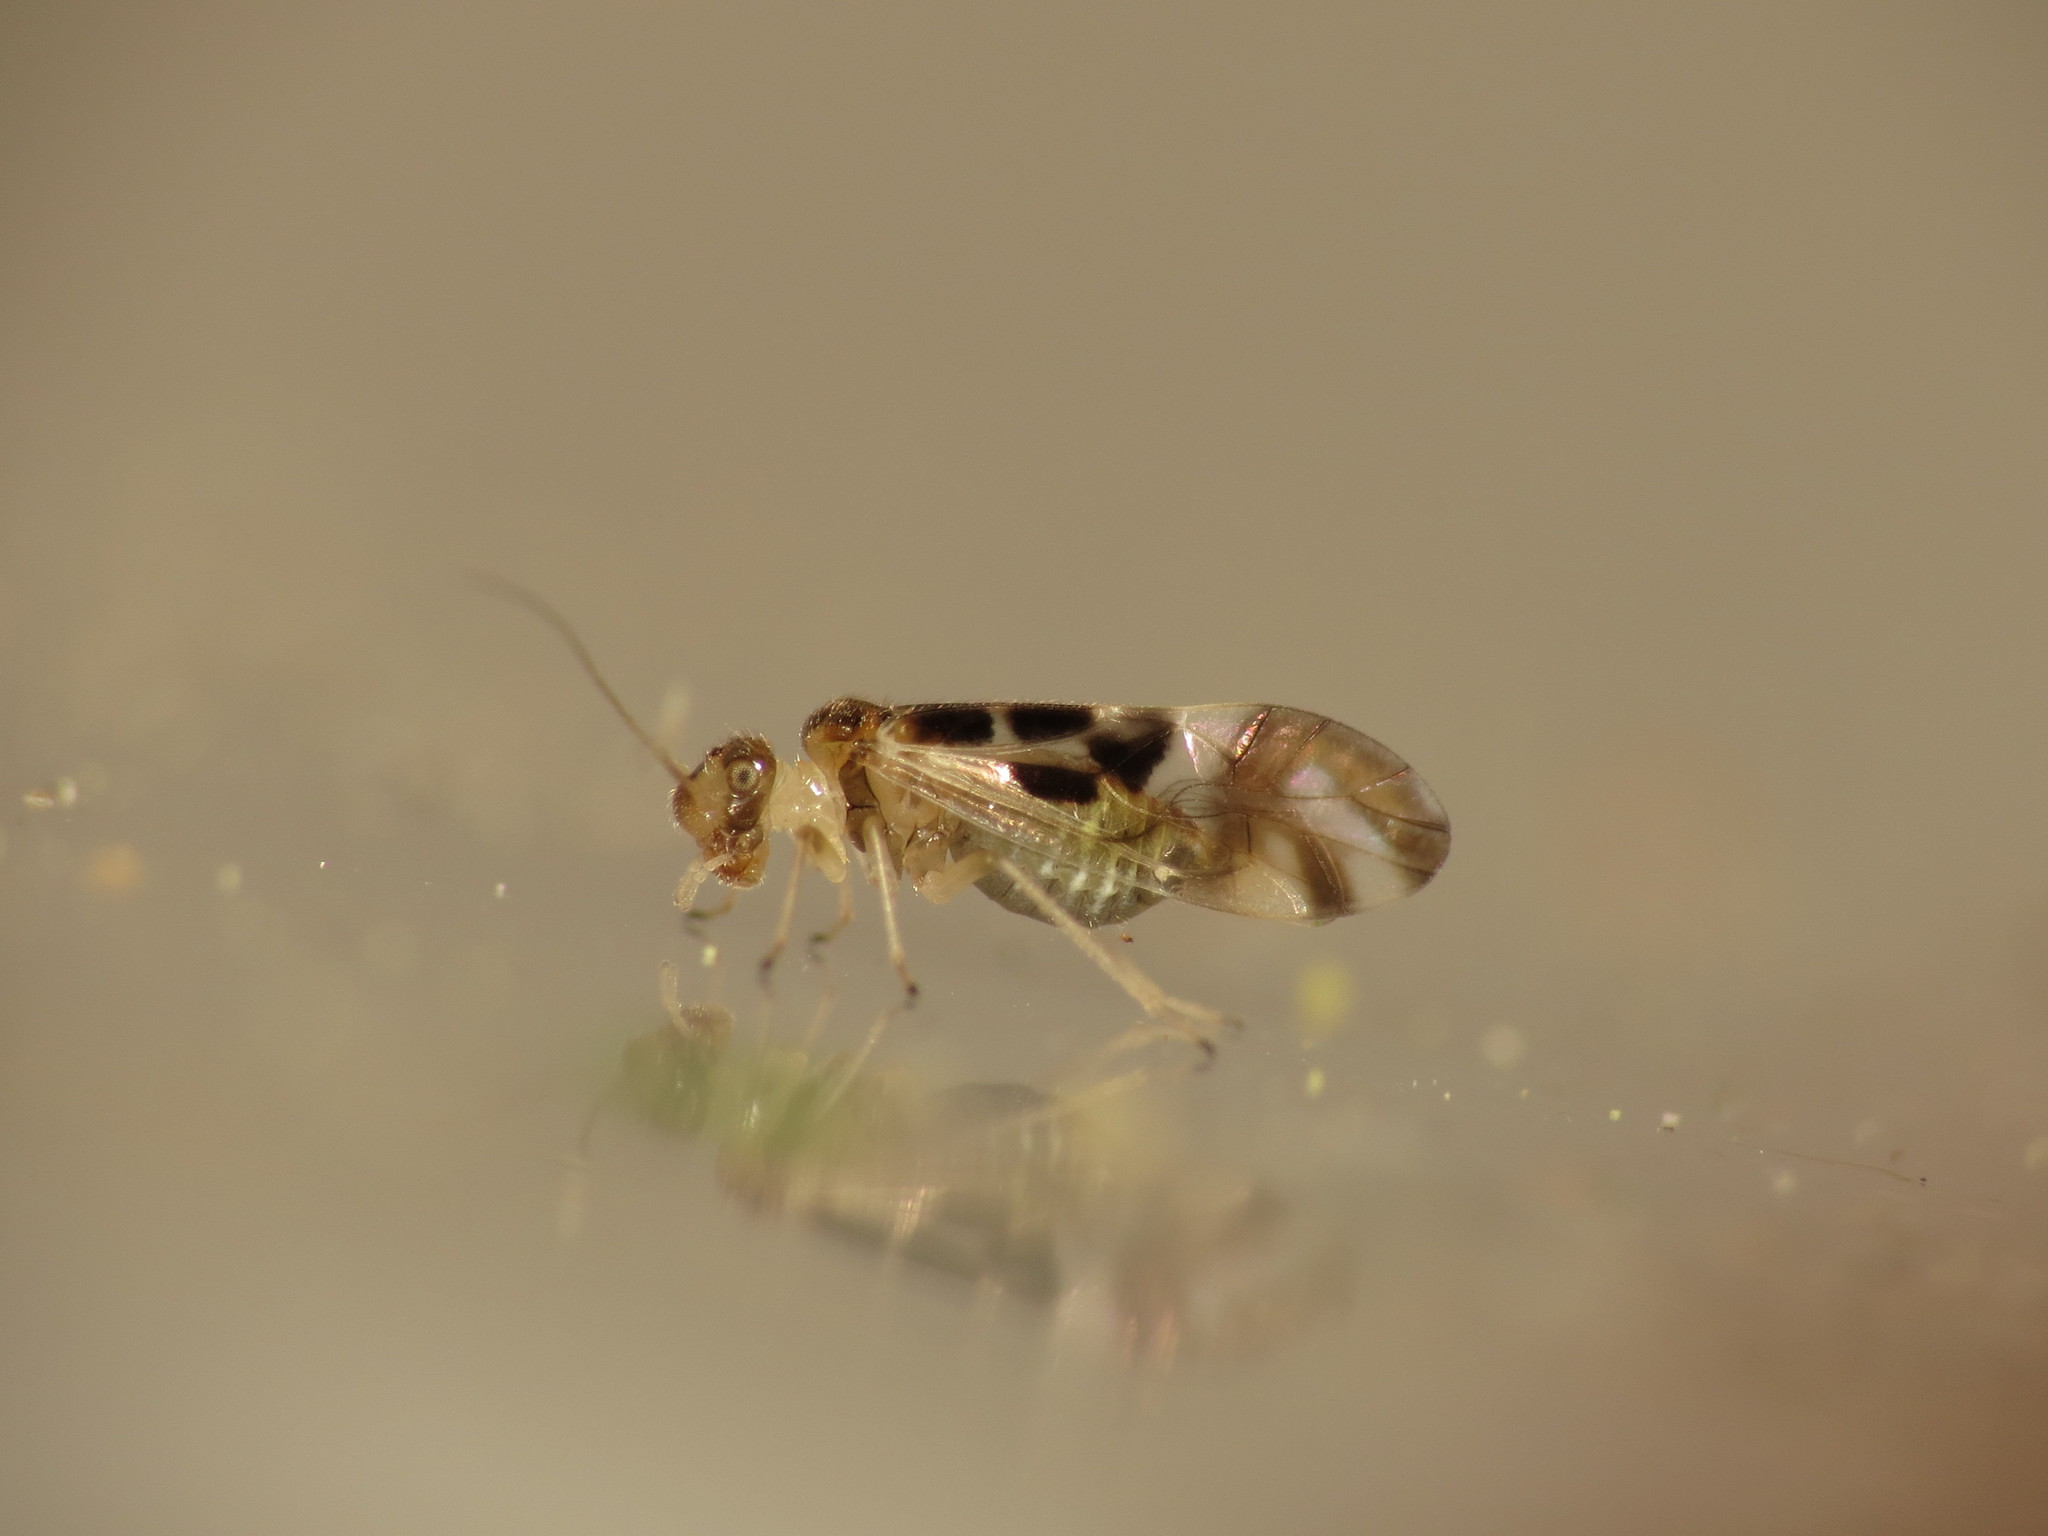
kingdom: Animalia
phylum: Arthropoda
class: Insecta
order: Psocodea
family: Stenopsocidae
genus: Graphopsocus
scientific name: Graphopsocus cruciatus
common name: Lizard bark louse
